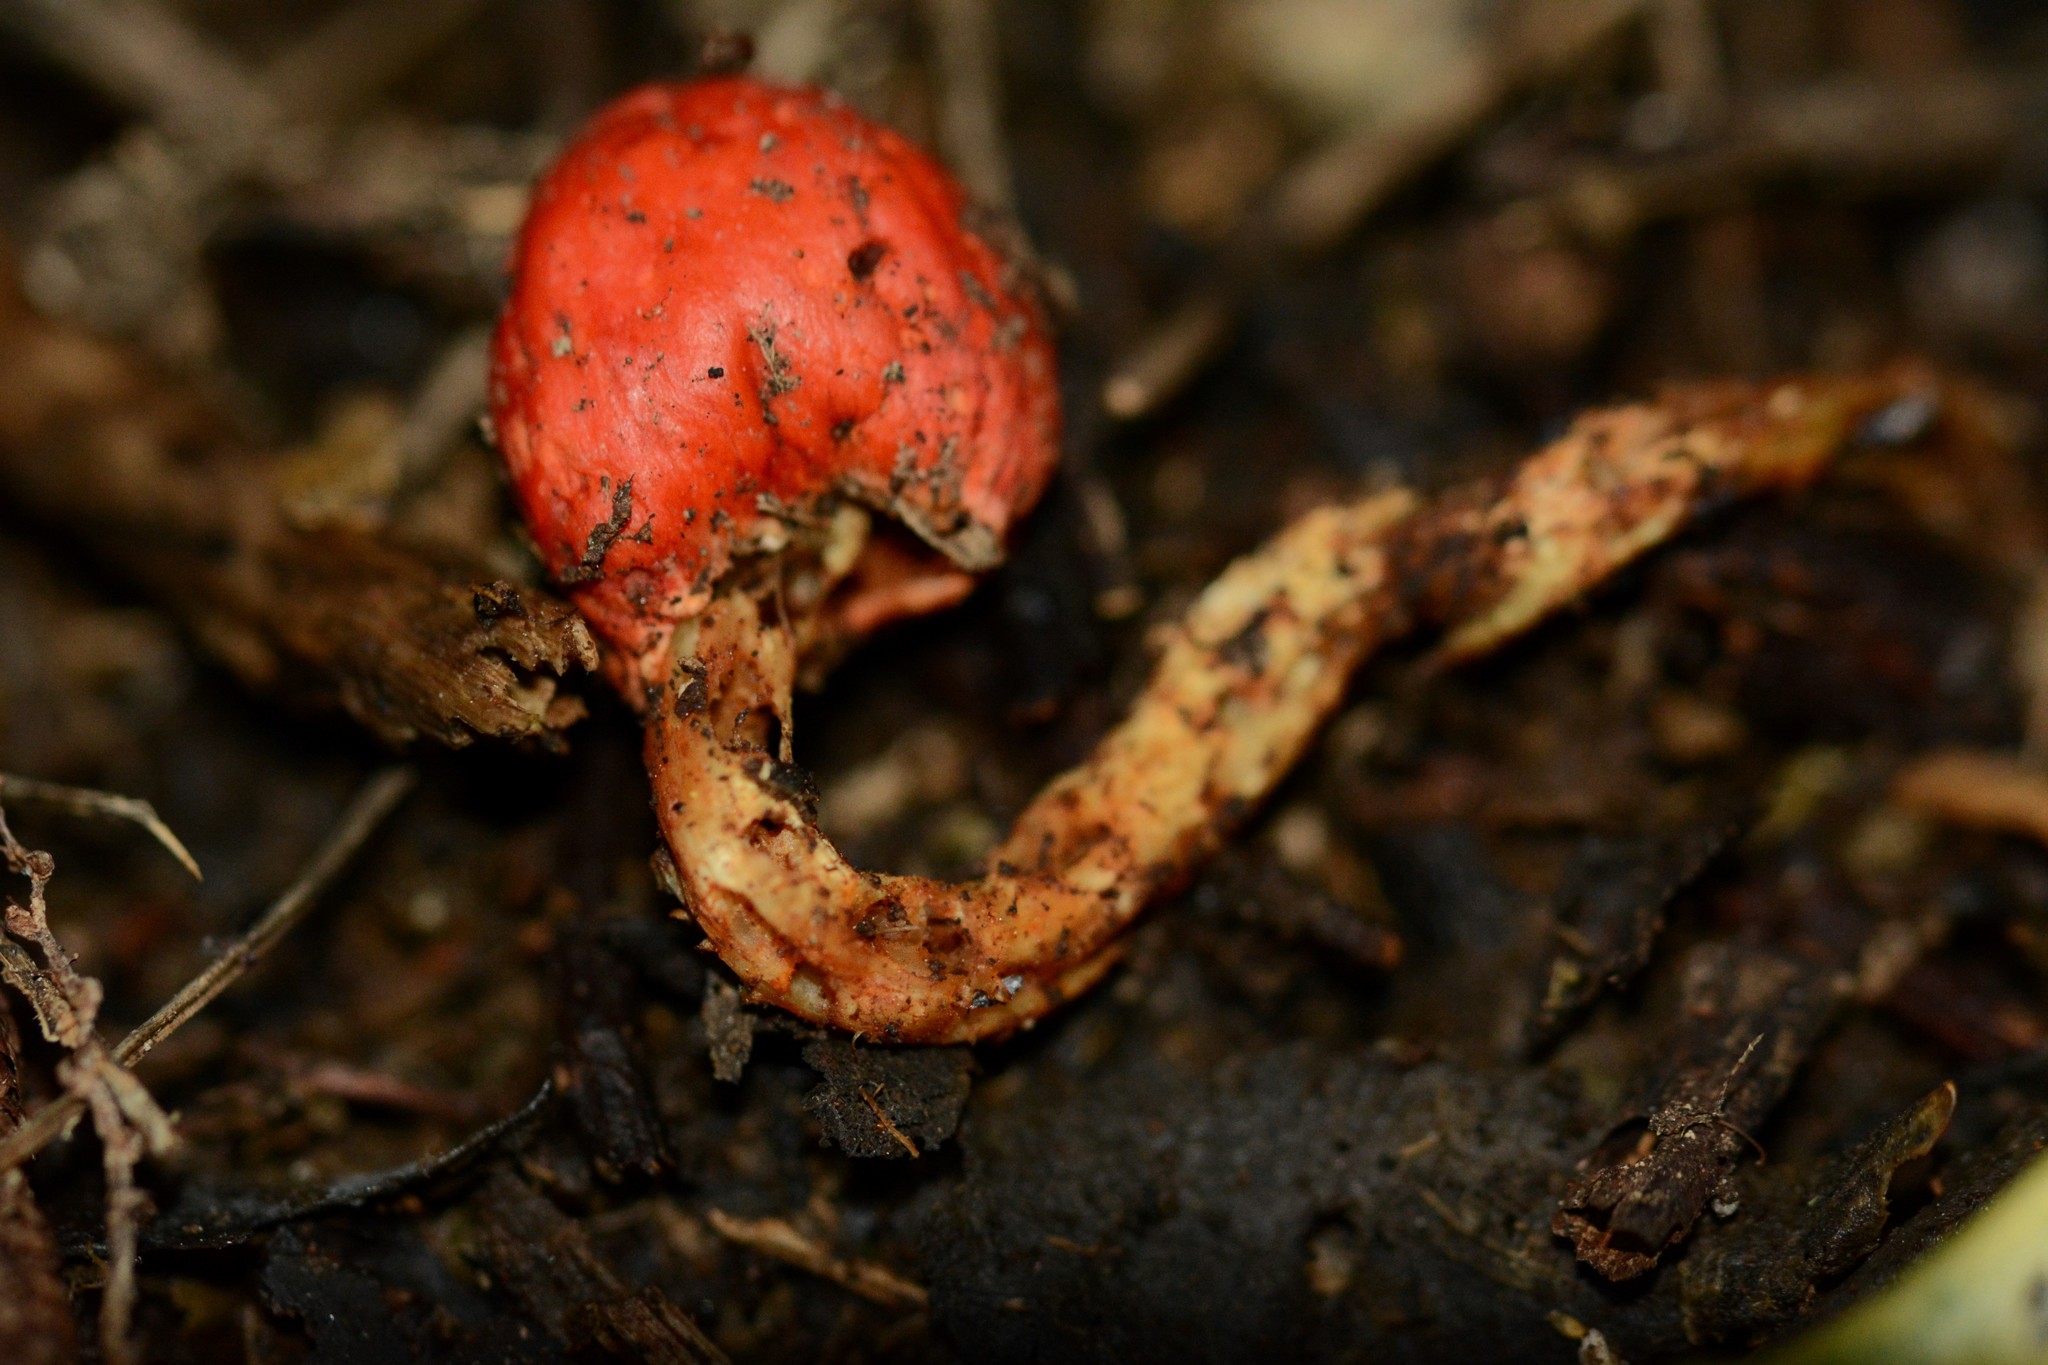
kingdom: Fungi
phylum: Basidiomycota
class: Agaricomycetes
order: Agaricales
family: Strophariaceae
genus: Leratiomyces
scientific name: Leratiomyces erythrocephalus
